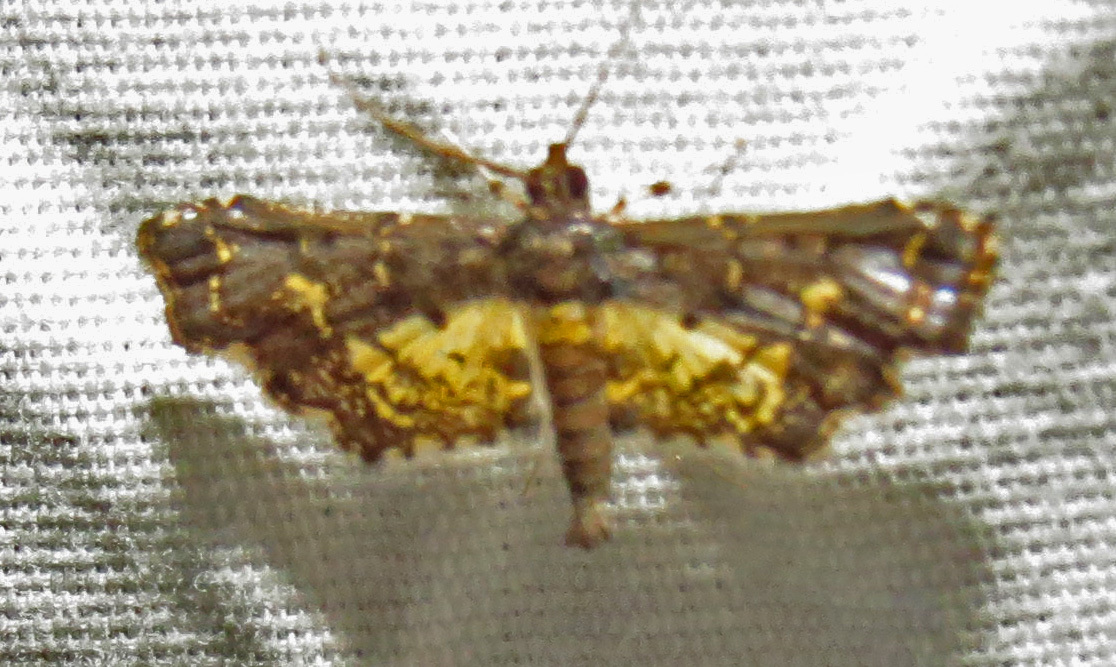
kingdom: Animalia
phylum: Arthropoda
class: Insecta
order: Lepidoptera
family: Crambidae
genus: Eurrhyparodes
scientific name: Eurrhyparodes lygdamis
